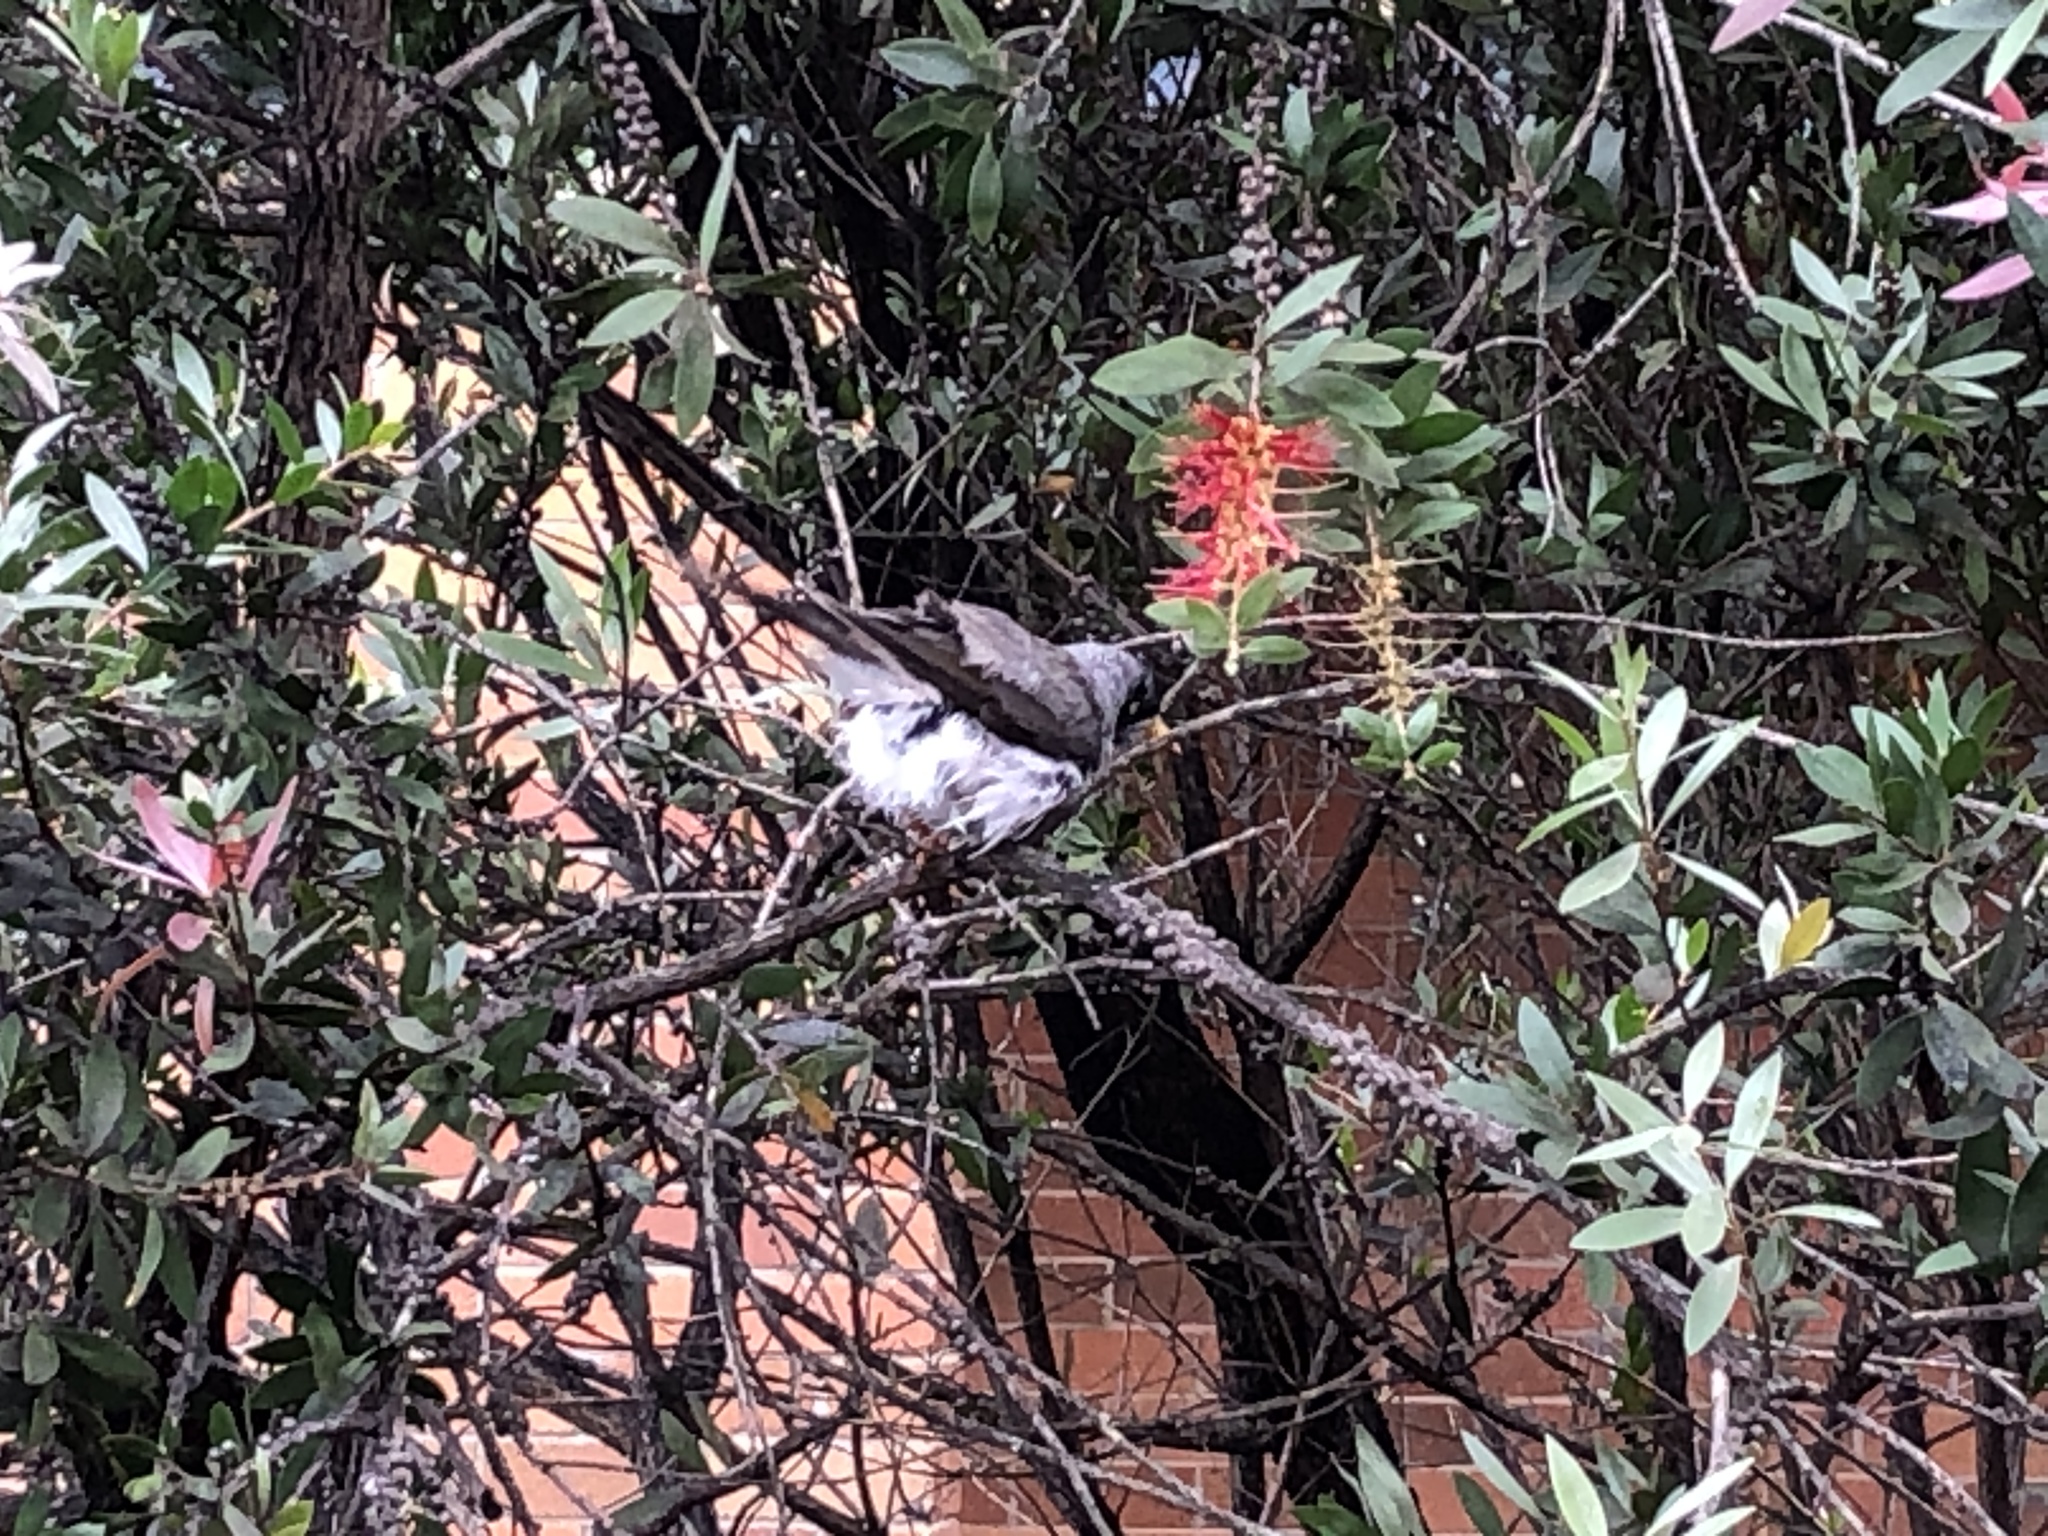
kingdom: Animalia
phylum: Chordata
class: Aves
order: Passeriformes
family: Meliphagidae
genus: Manorina
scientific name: Manorina melanocephala
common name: Noisy miner
